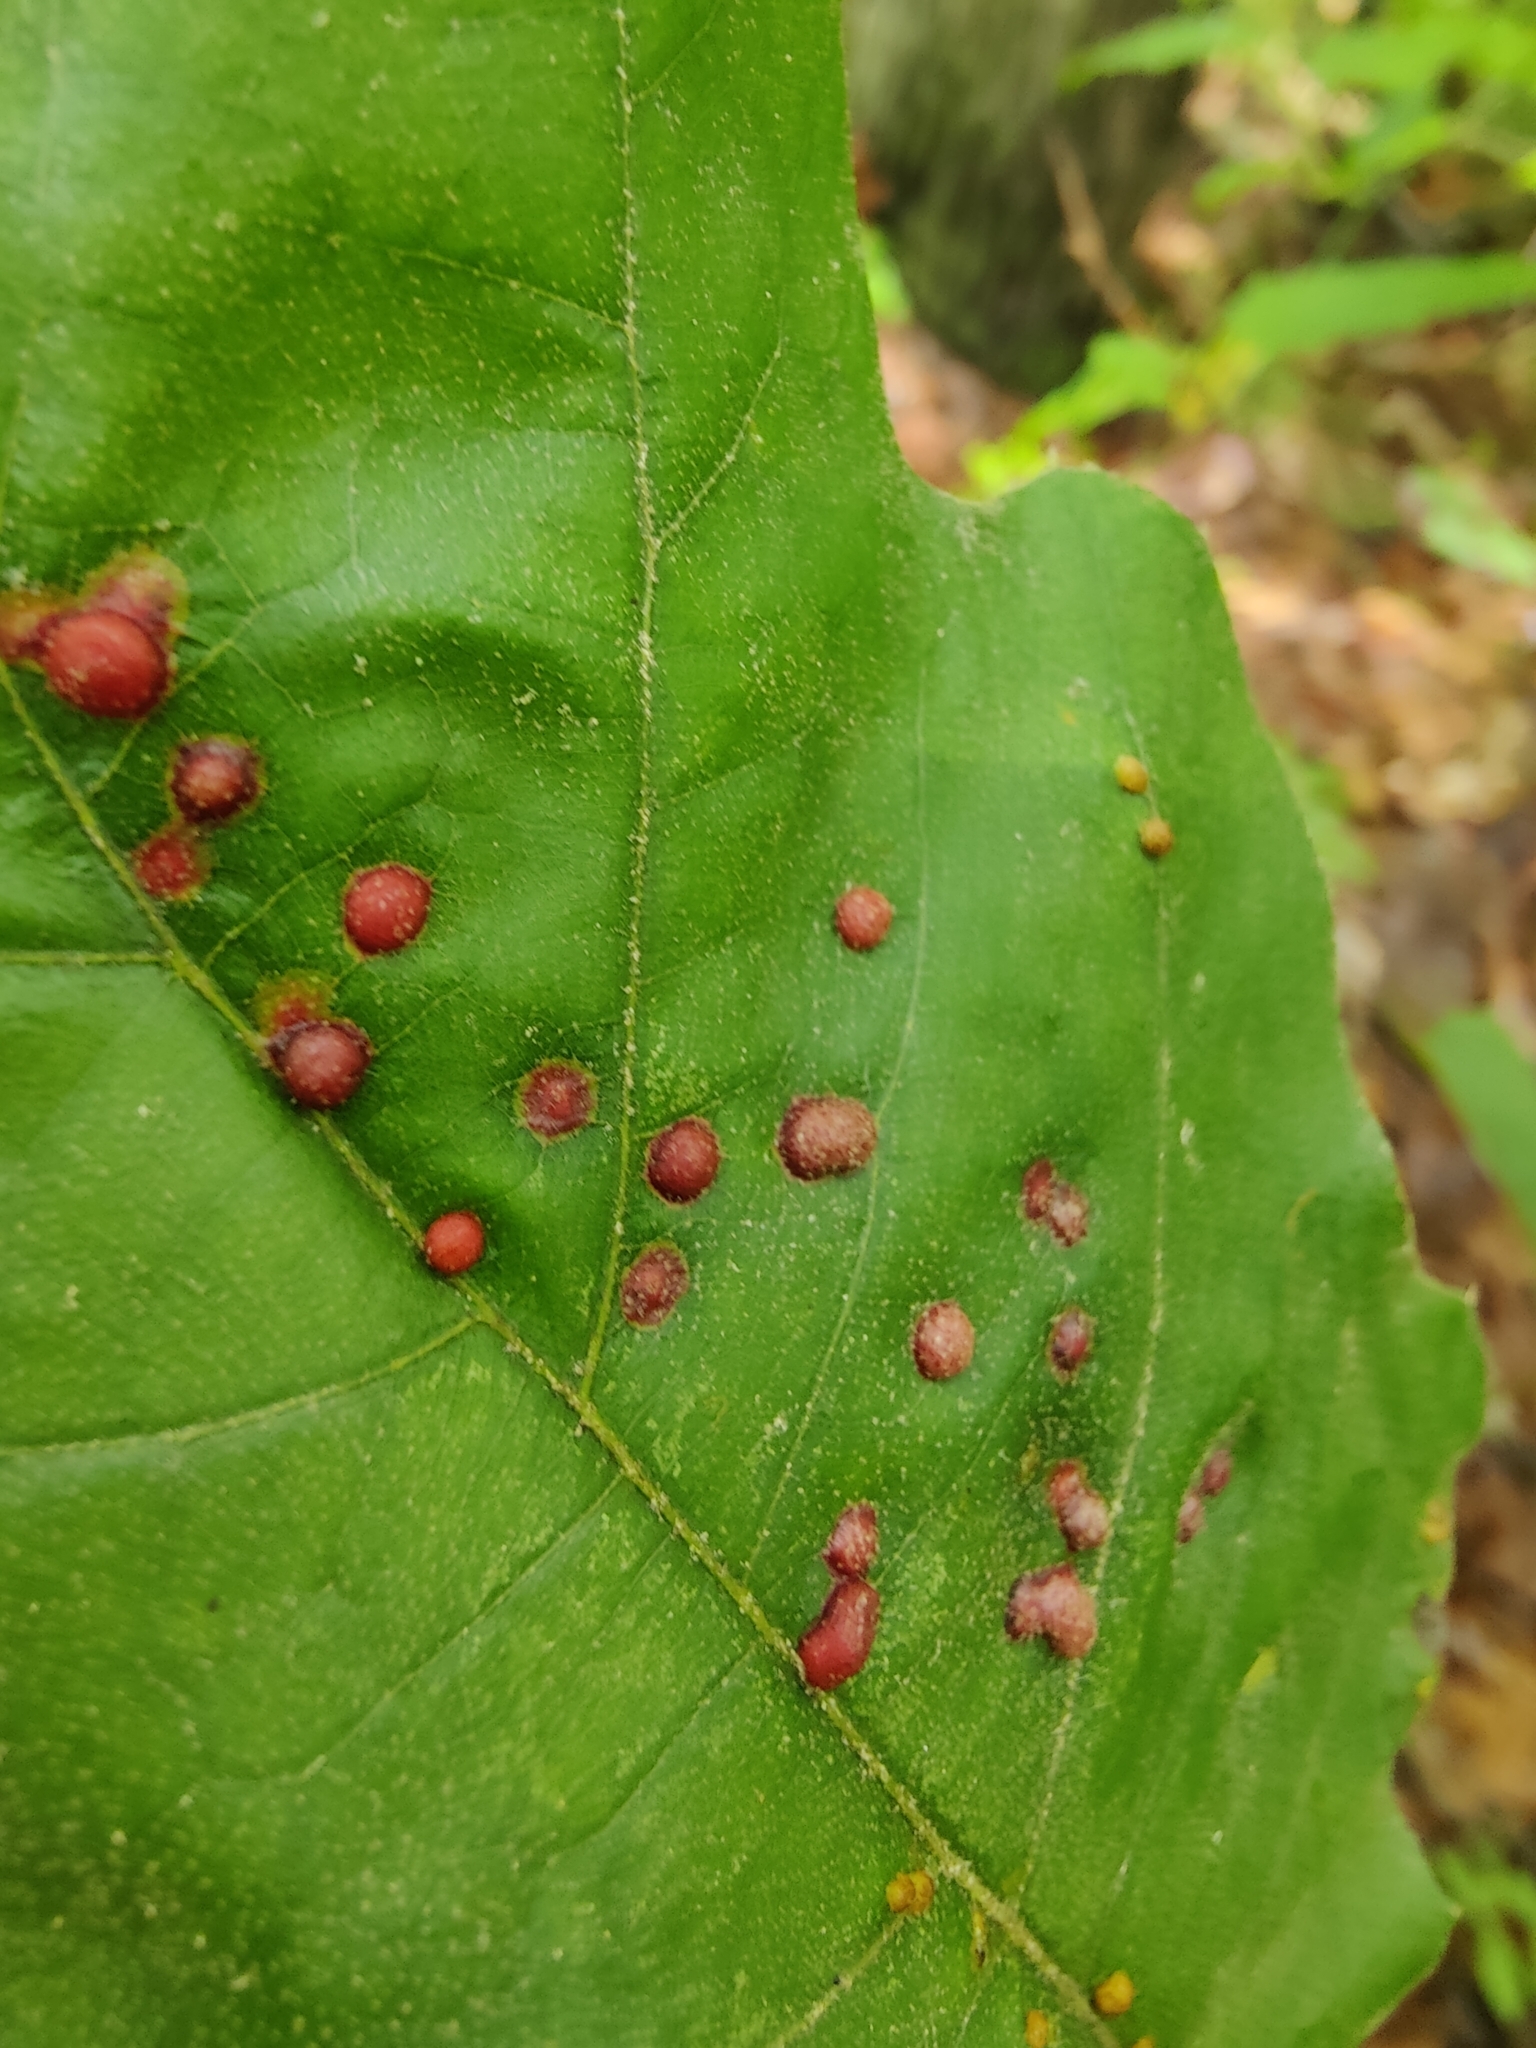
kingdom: Animalia
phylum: Arthropoda
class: Insecta
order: Diptera
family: Cecidomyiidae
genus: Polystepha
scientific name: Polystepha pilulae
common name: Oak leaf gall midge
